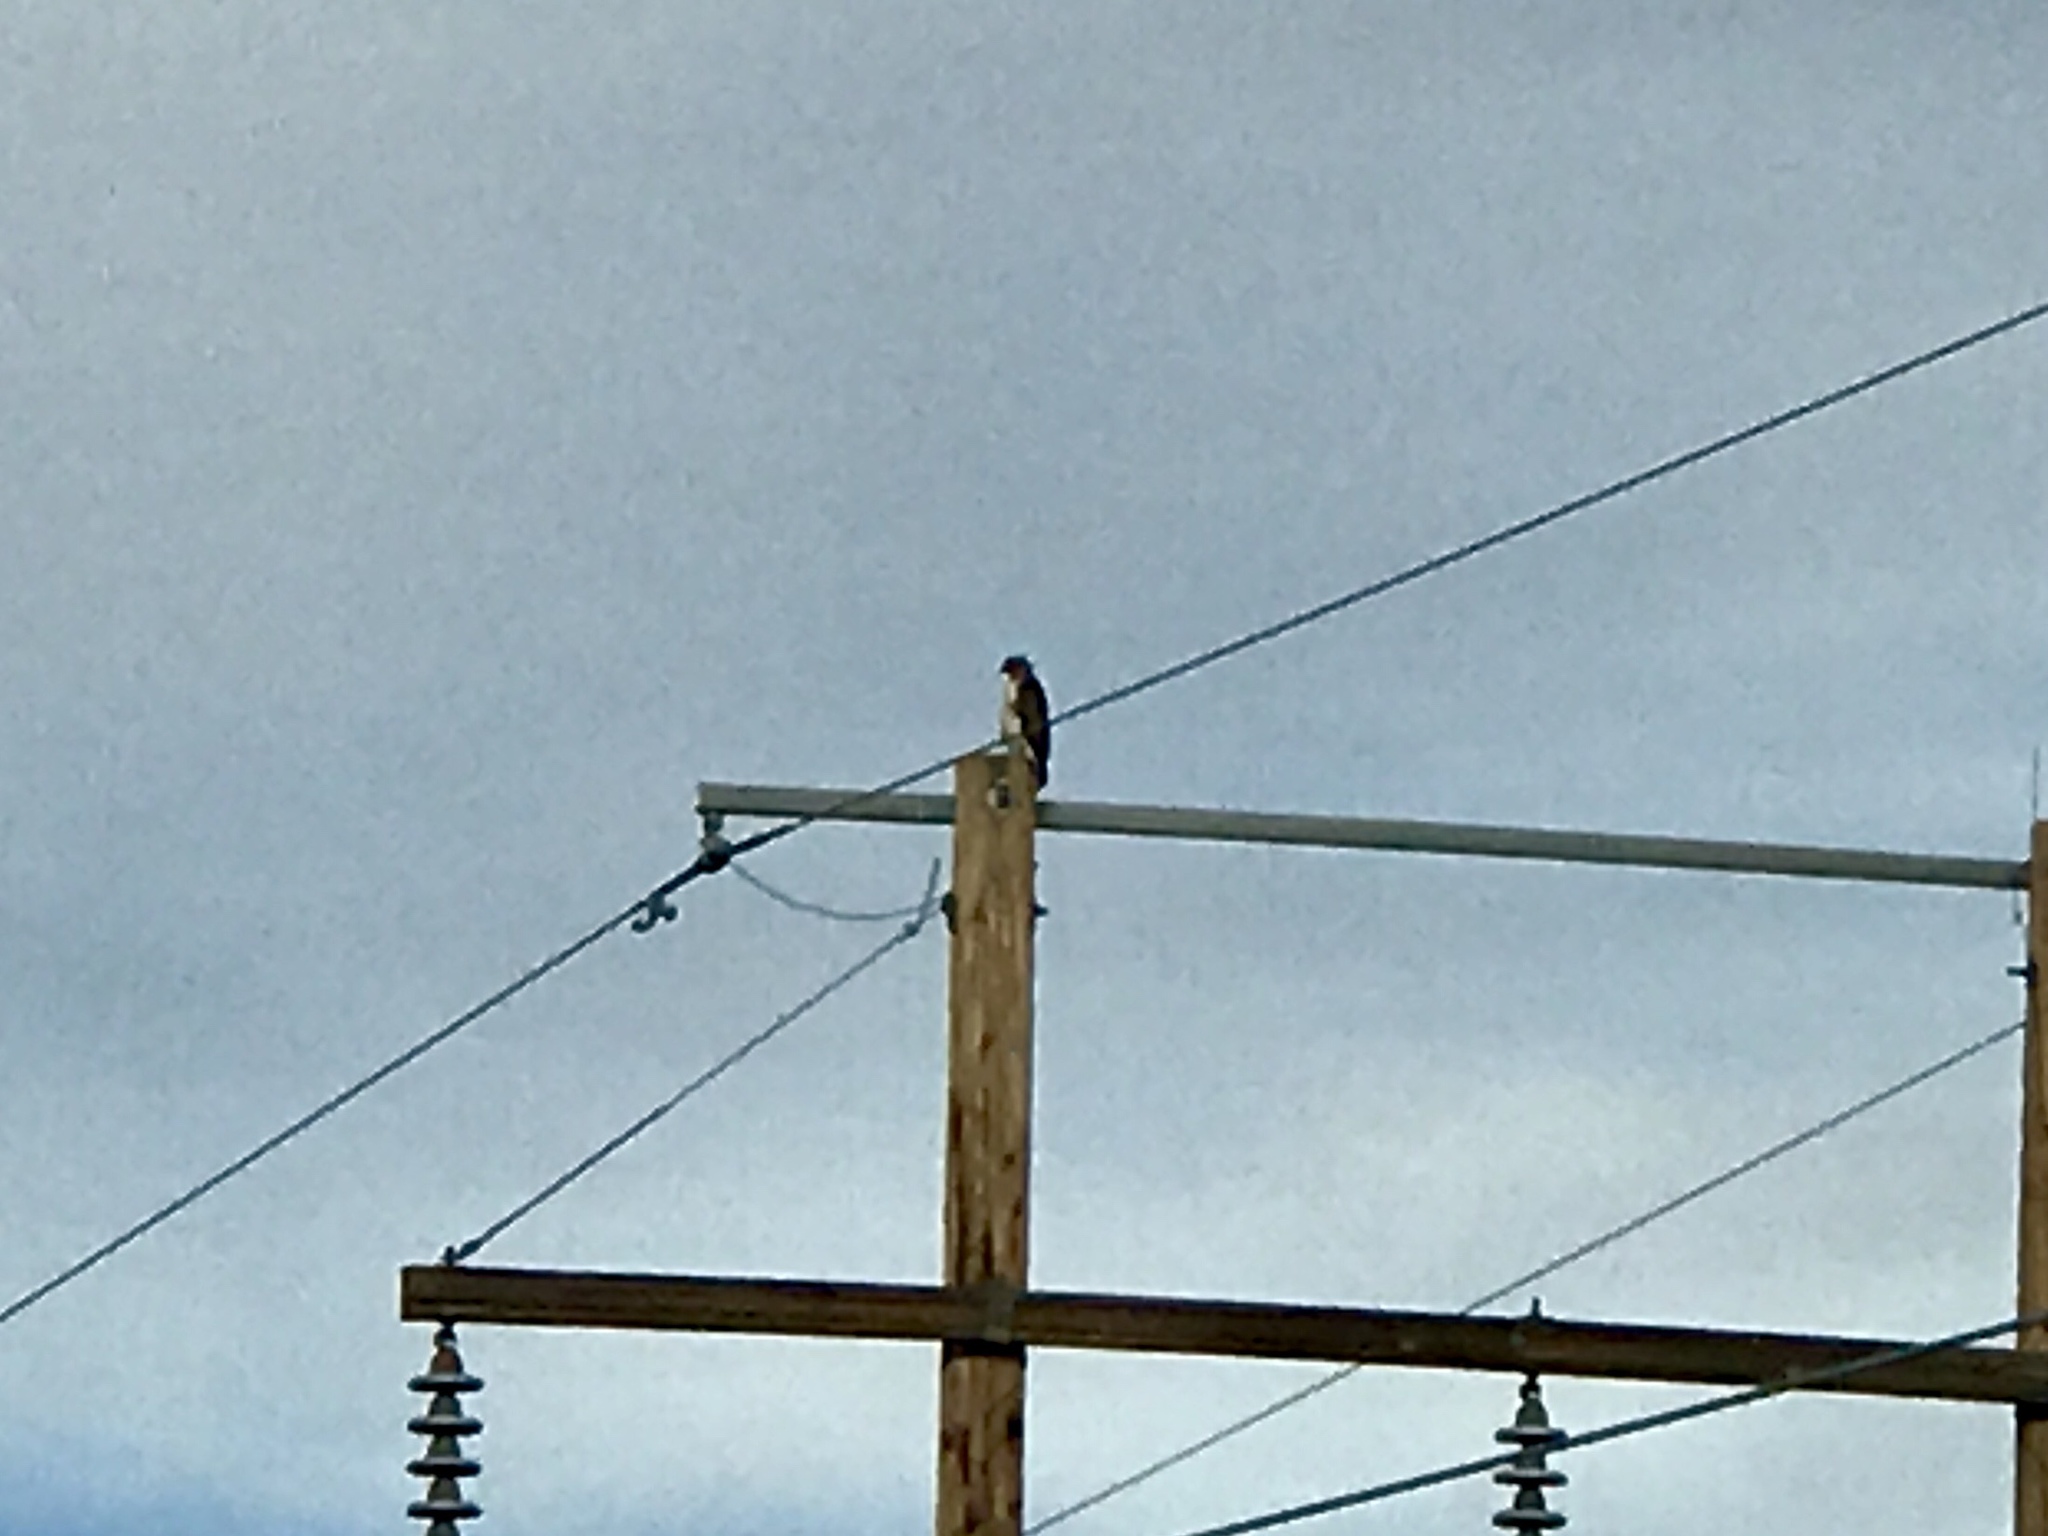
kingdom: Animalia
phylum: Chordata
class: Aves
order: Accipitriformes
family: Accipitridae
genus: Buteo
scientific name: Buteo jamaicensis
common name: Red-tailed hawk
